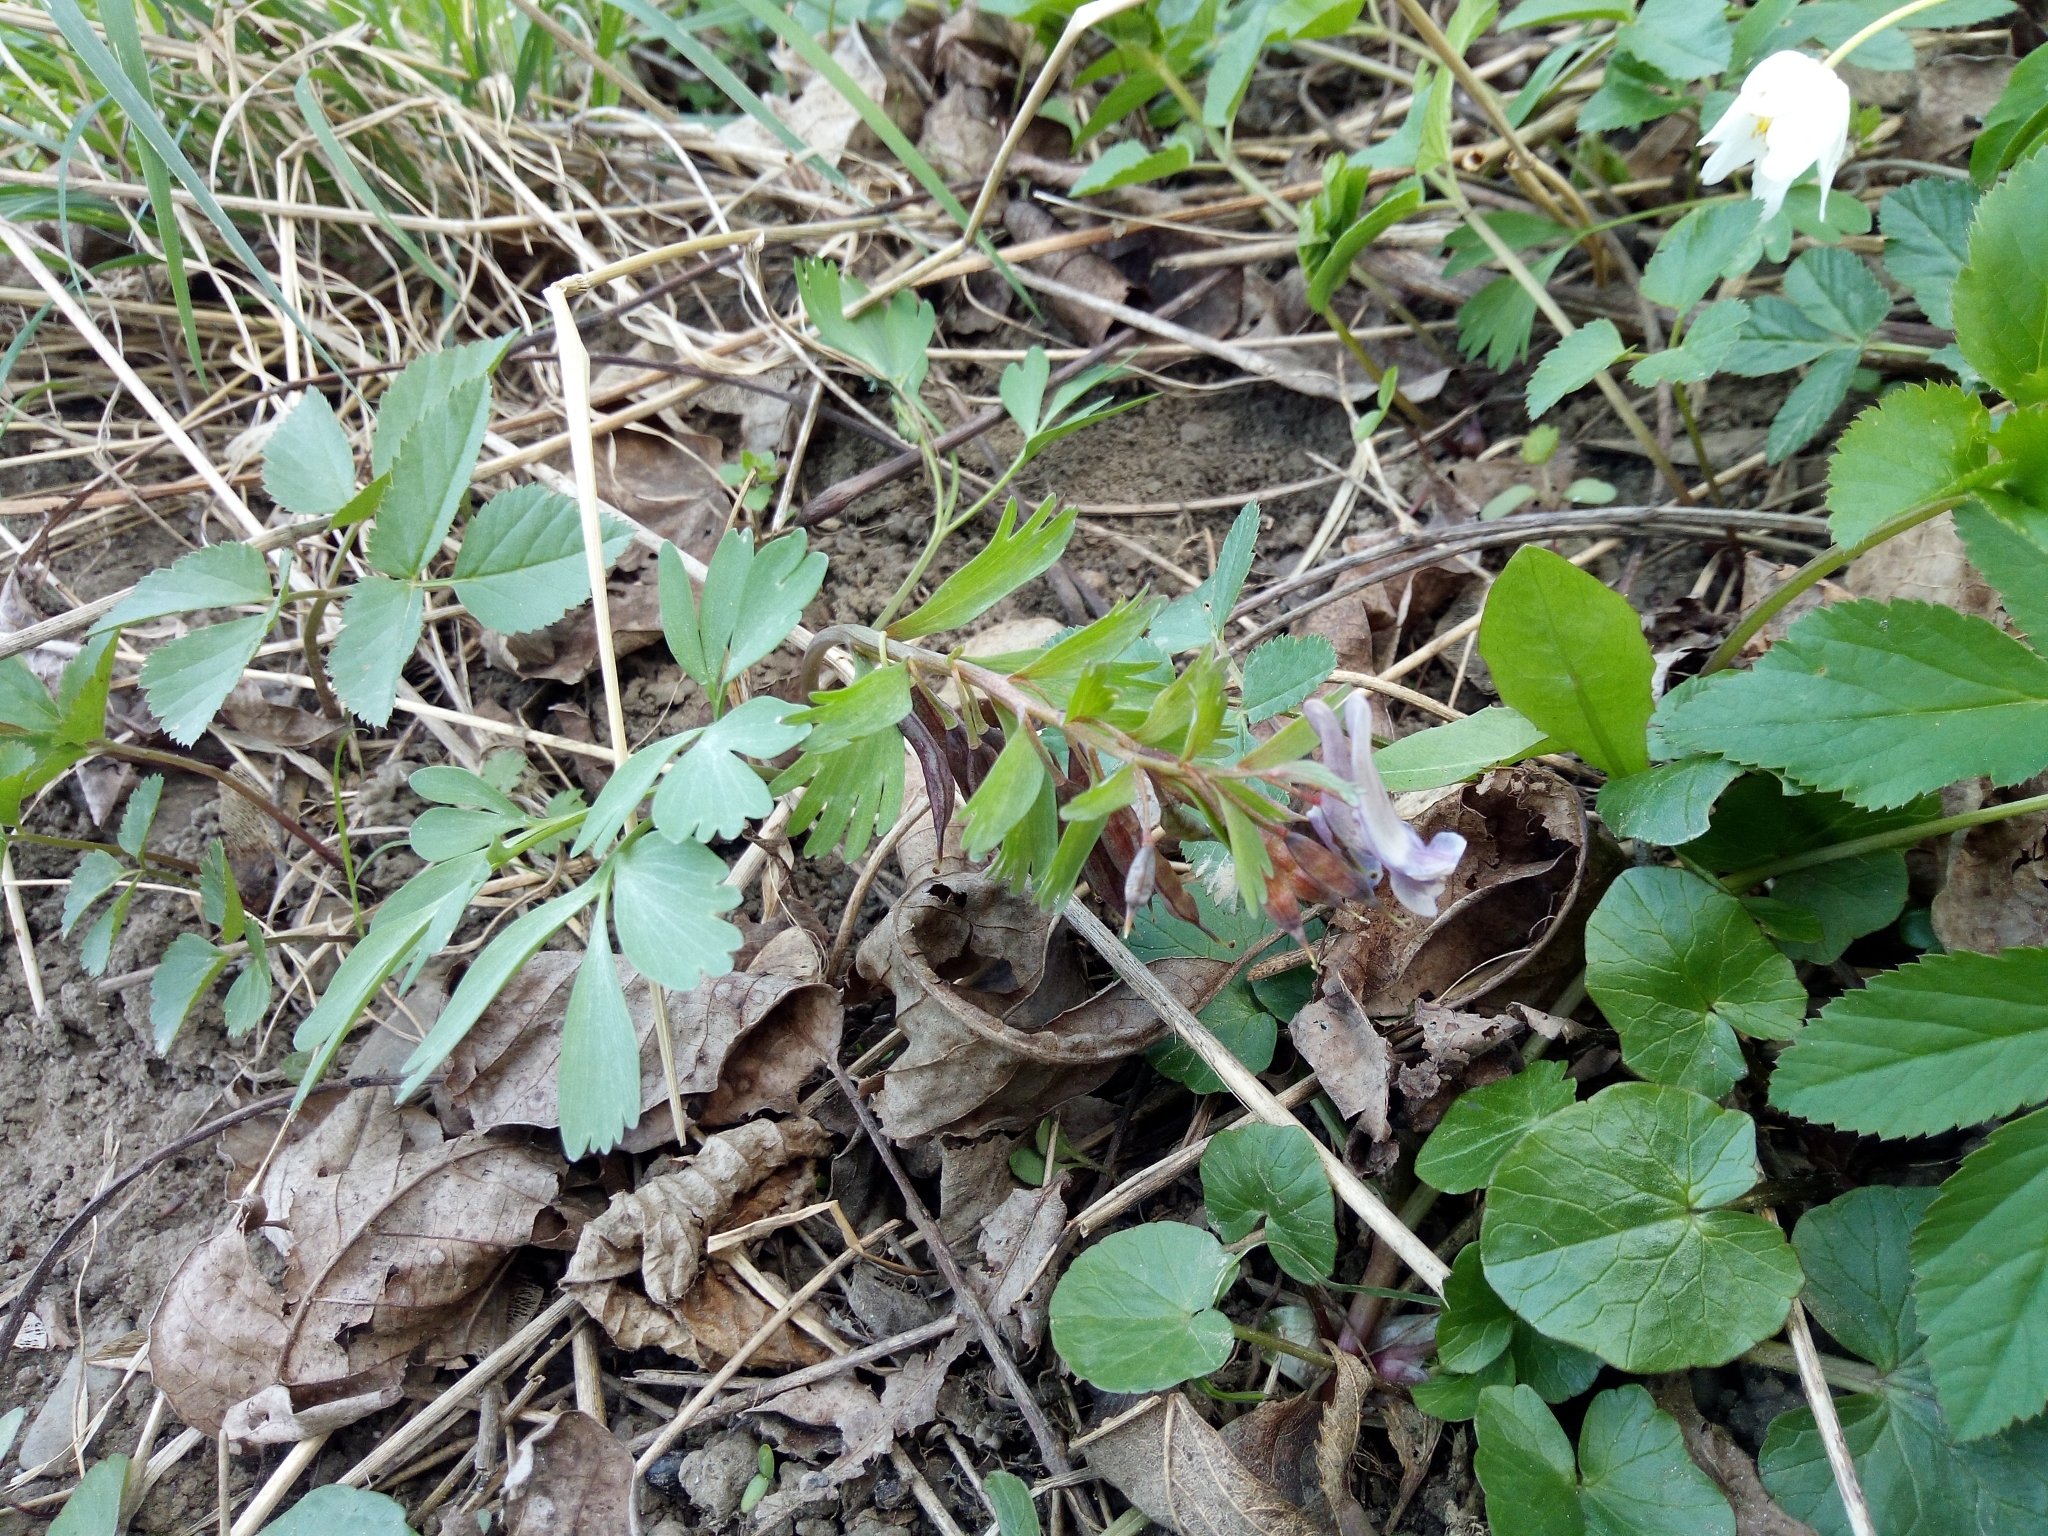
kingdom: Plantae
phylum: Tracheophyta
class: Magnoliopsida
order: Ranunculales
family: Papaveraceae
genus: Corydalis
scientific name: Corydalis solida
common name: Bird-in-a-bush
